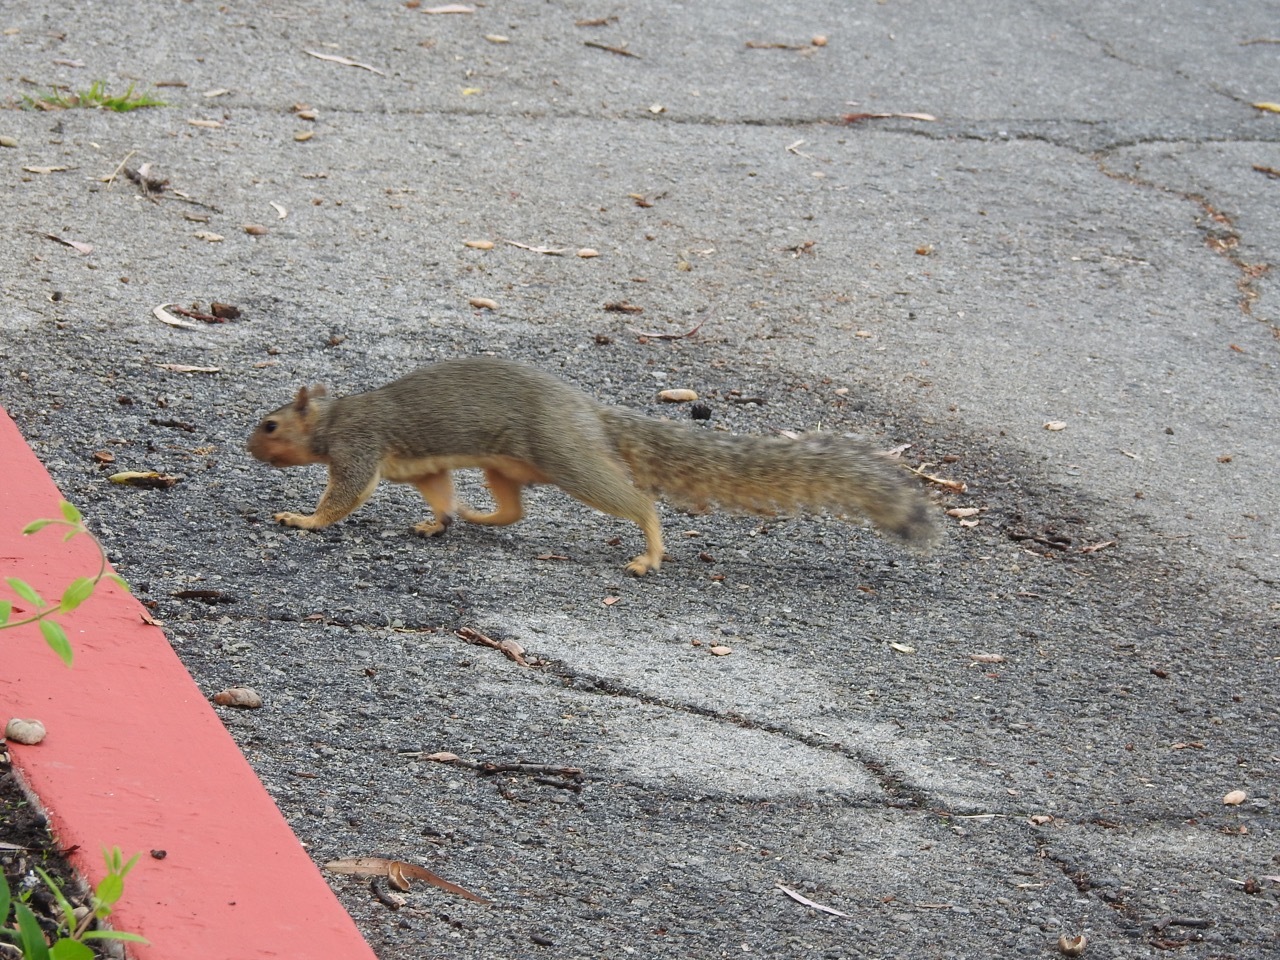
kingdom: Animalia
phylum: Chordata
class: Mammalia
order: Rodentia
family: Sciuridae
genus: Sciurus
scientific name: Sciurus niger
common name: Fox squirrel
